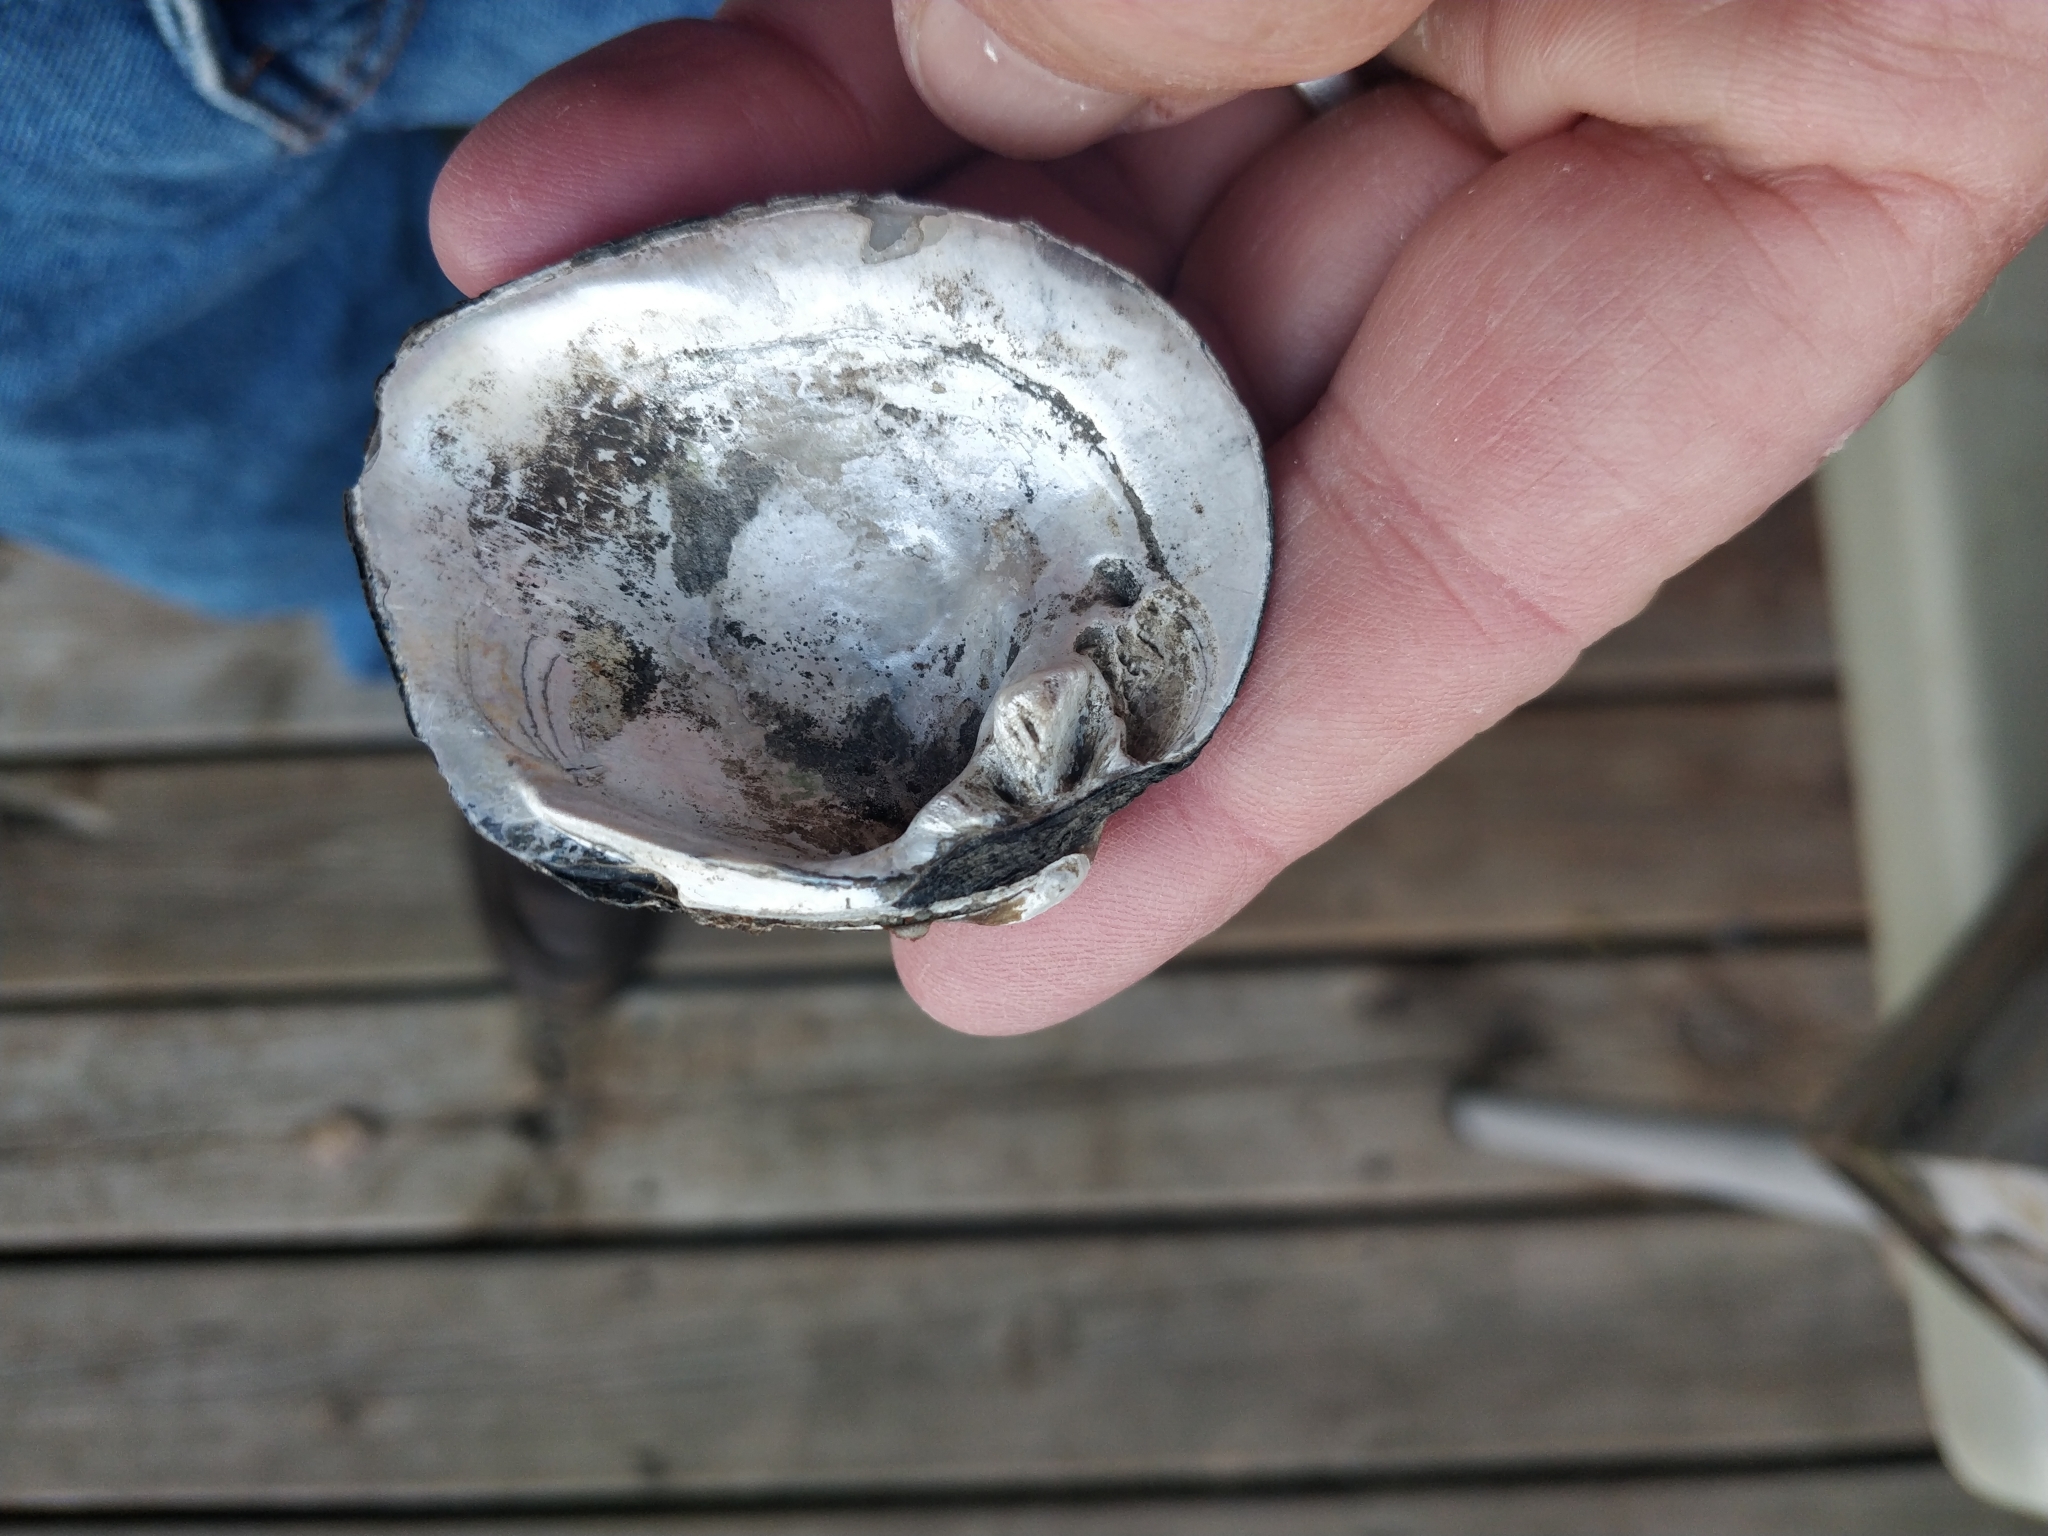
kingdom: Animalia
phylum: Mollusca
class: Bivalvia
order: Unionida
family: Unionidae
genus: Cyclonaias
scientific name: Cyclonaias pustulosa
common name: Pimpleback
